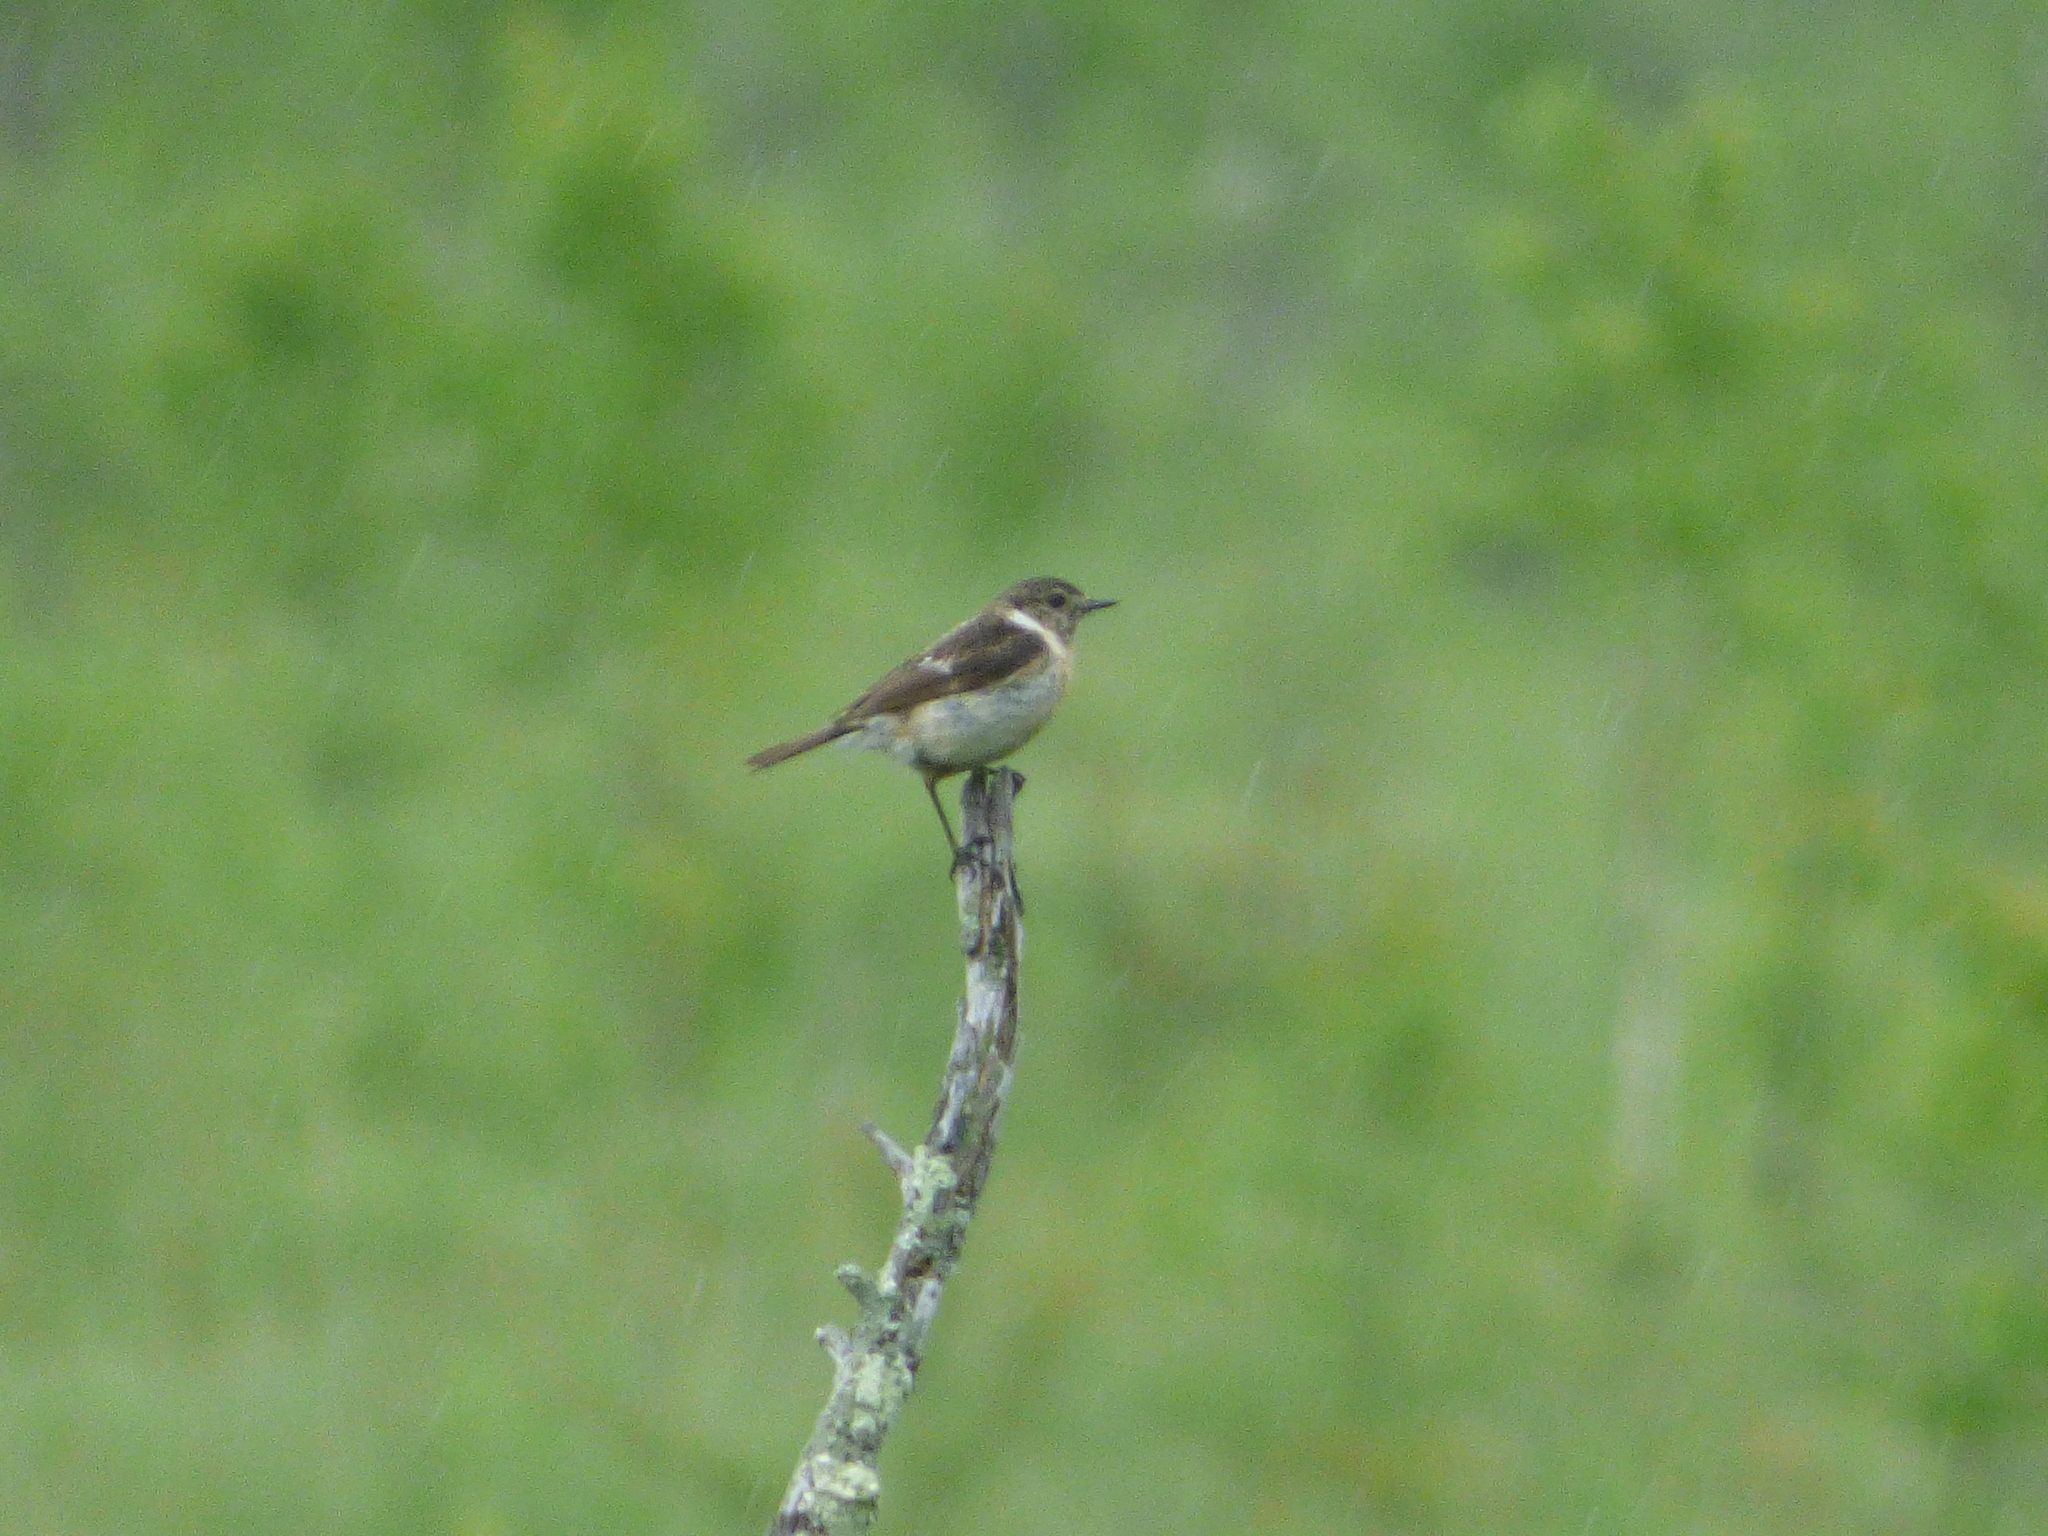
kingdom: Animalia
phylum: Chordata
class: Aves
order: Passeriformes
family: Muscicapidae
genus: Saxicola
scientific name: Saxicola stejnegeri
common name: Stejneger's stonechat
